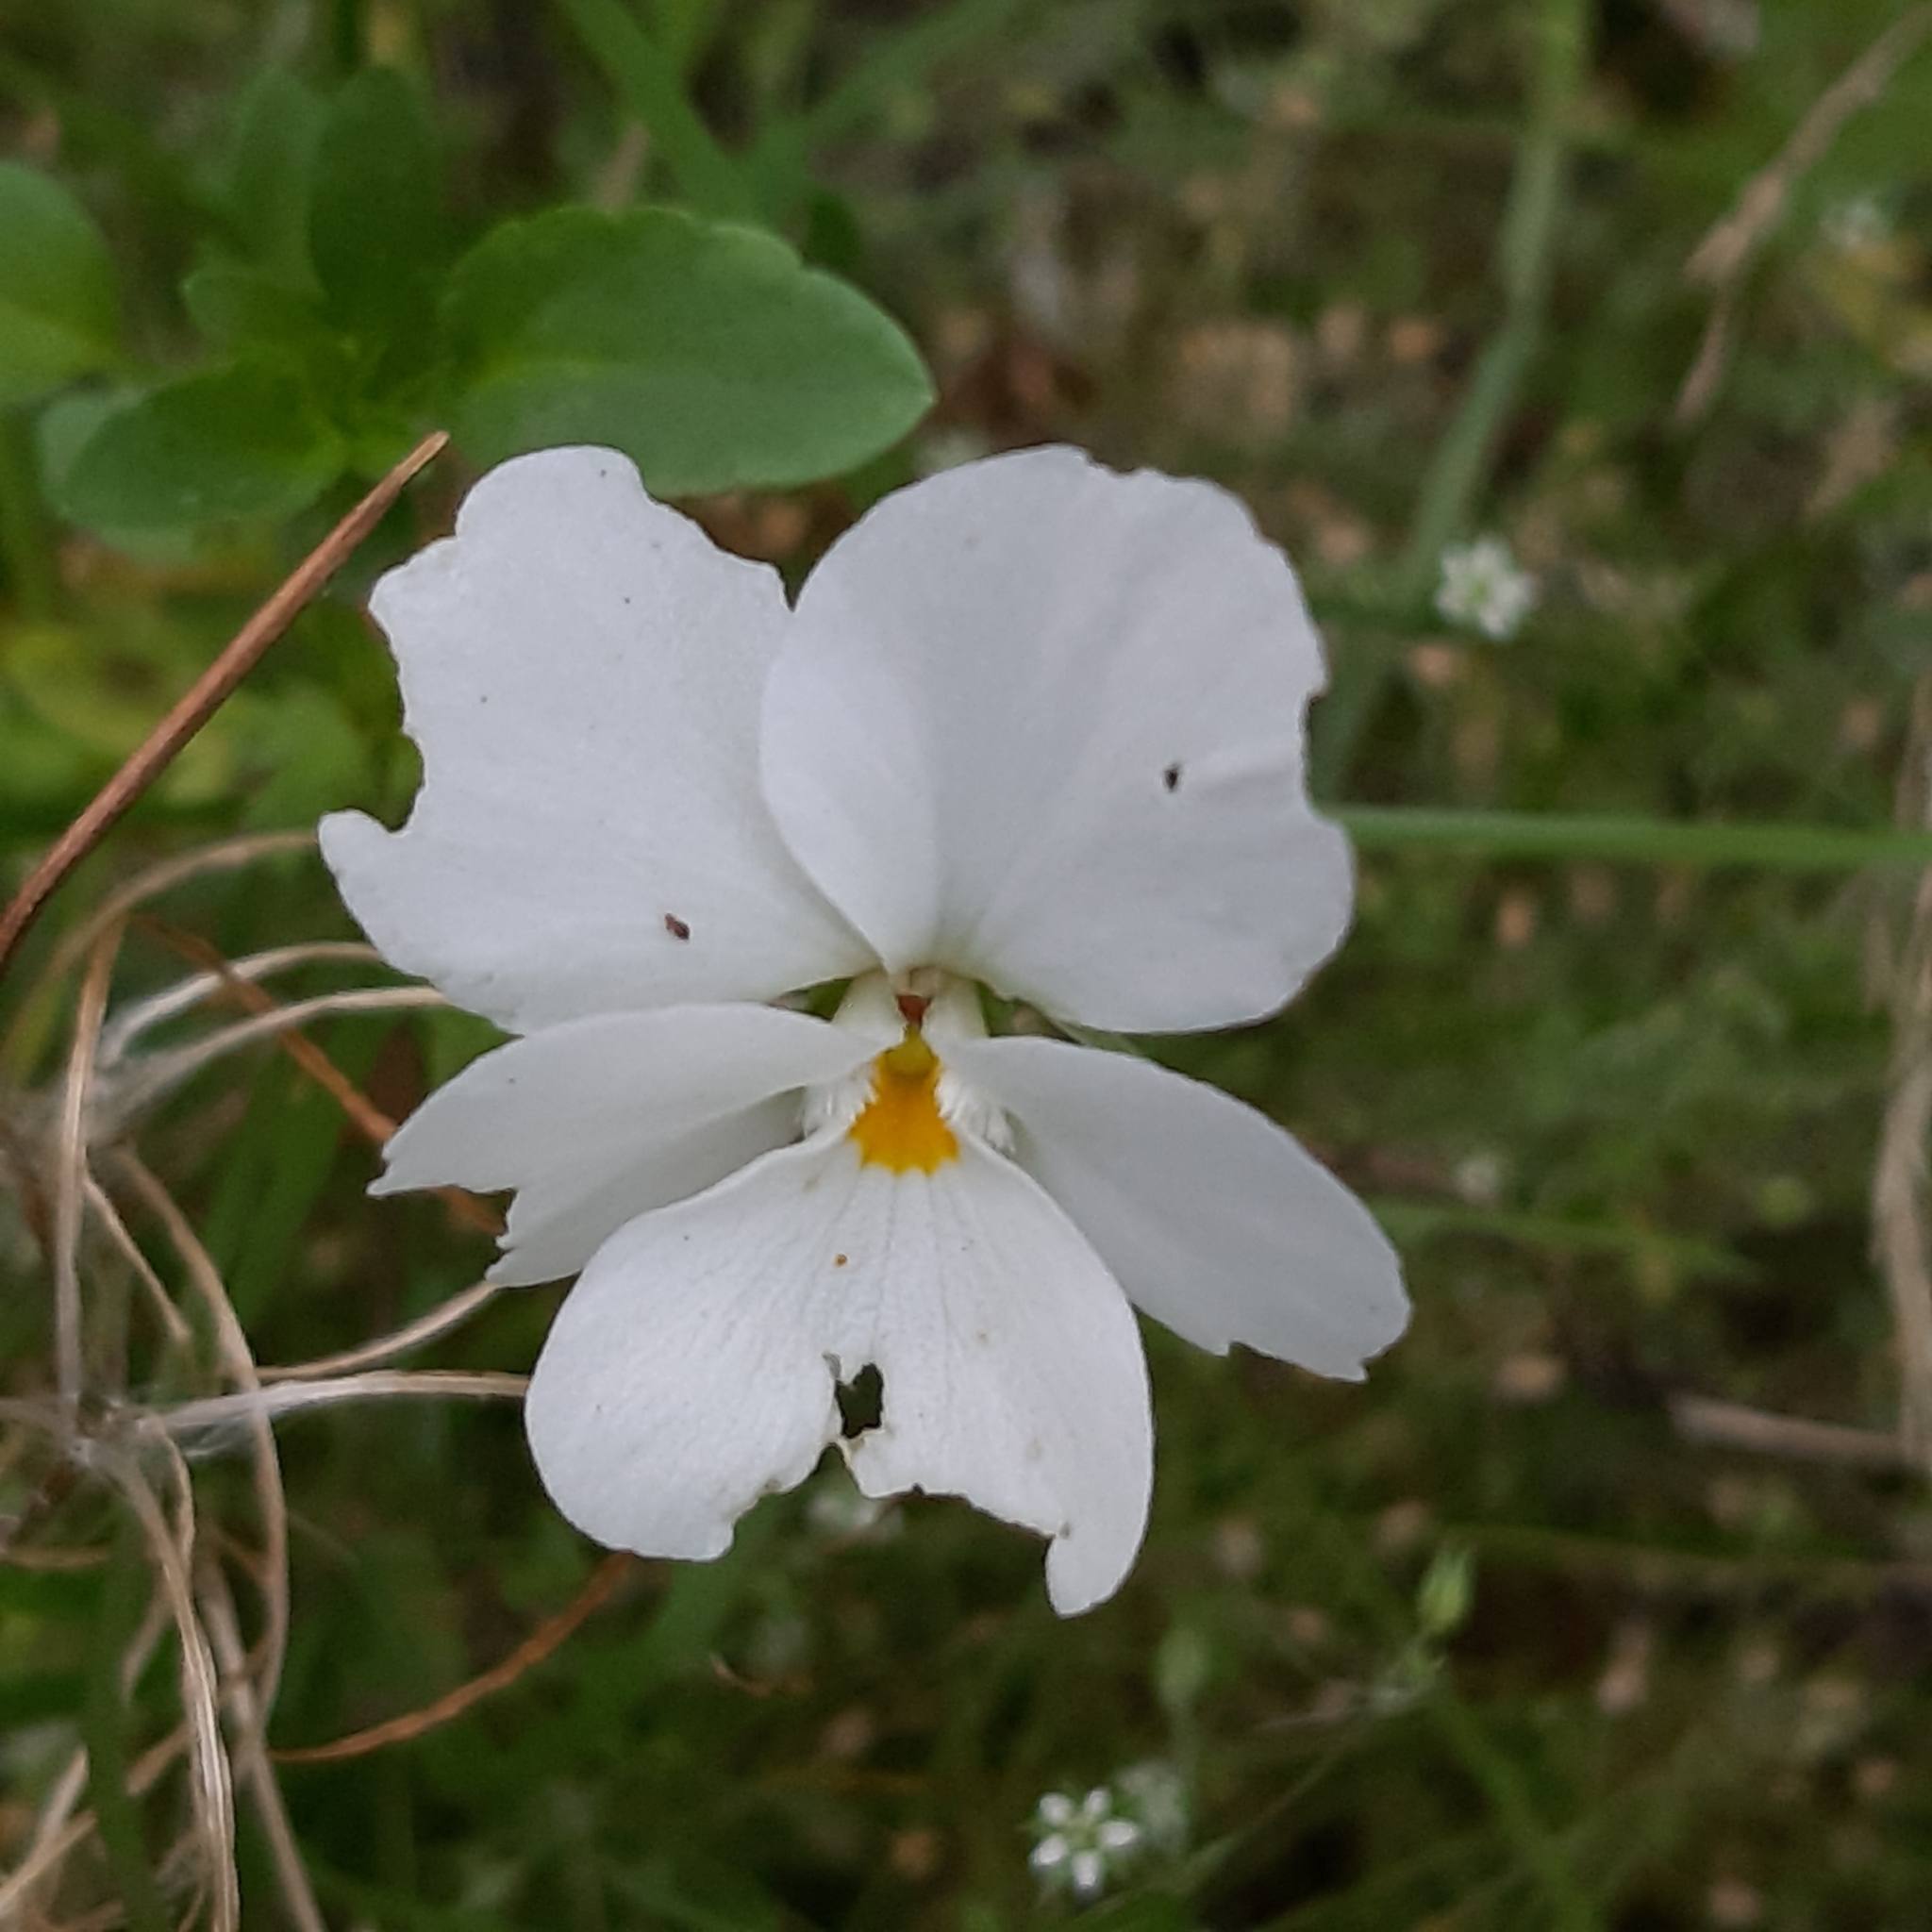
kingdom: Plantae
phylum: Tracheophyta
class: Magnoliopsida
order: Malpighiales
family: Violaceae
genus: Viola
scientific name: Viola williamsii
